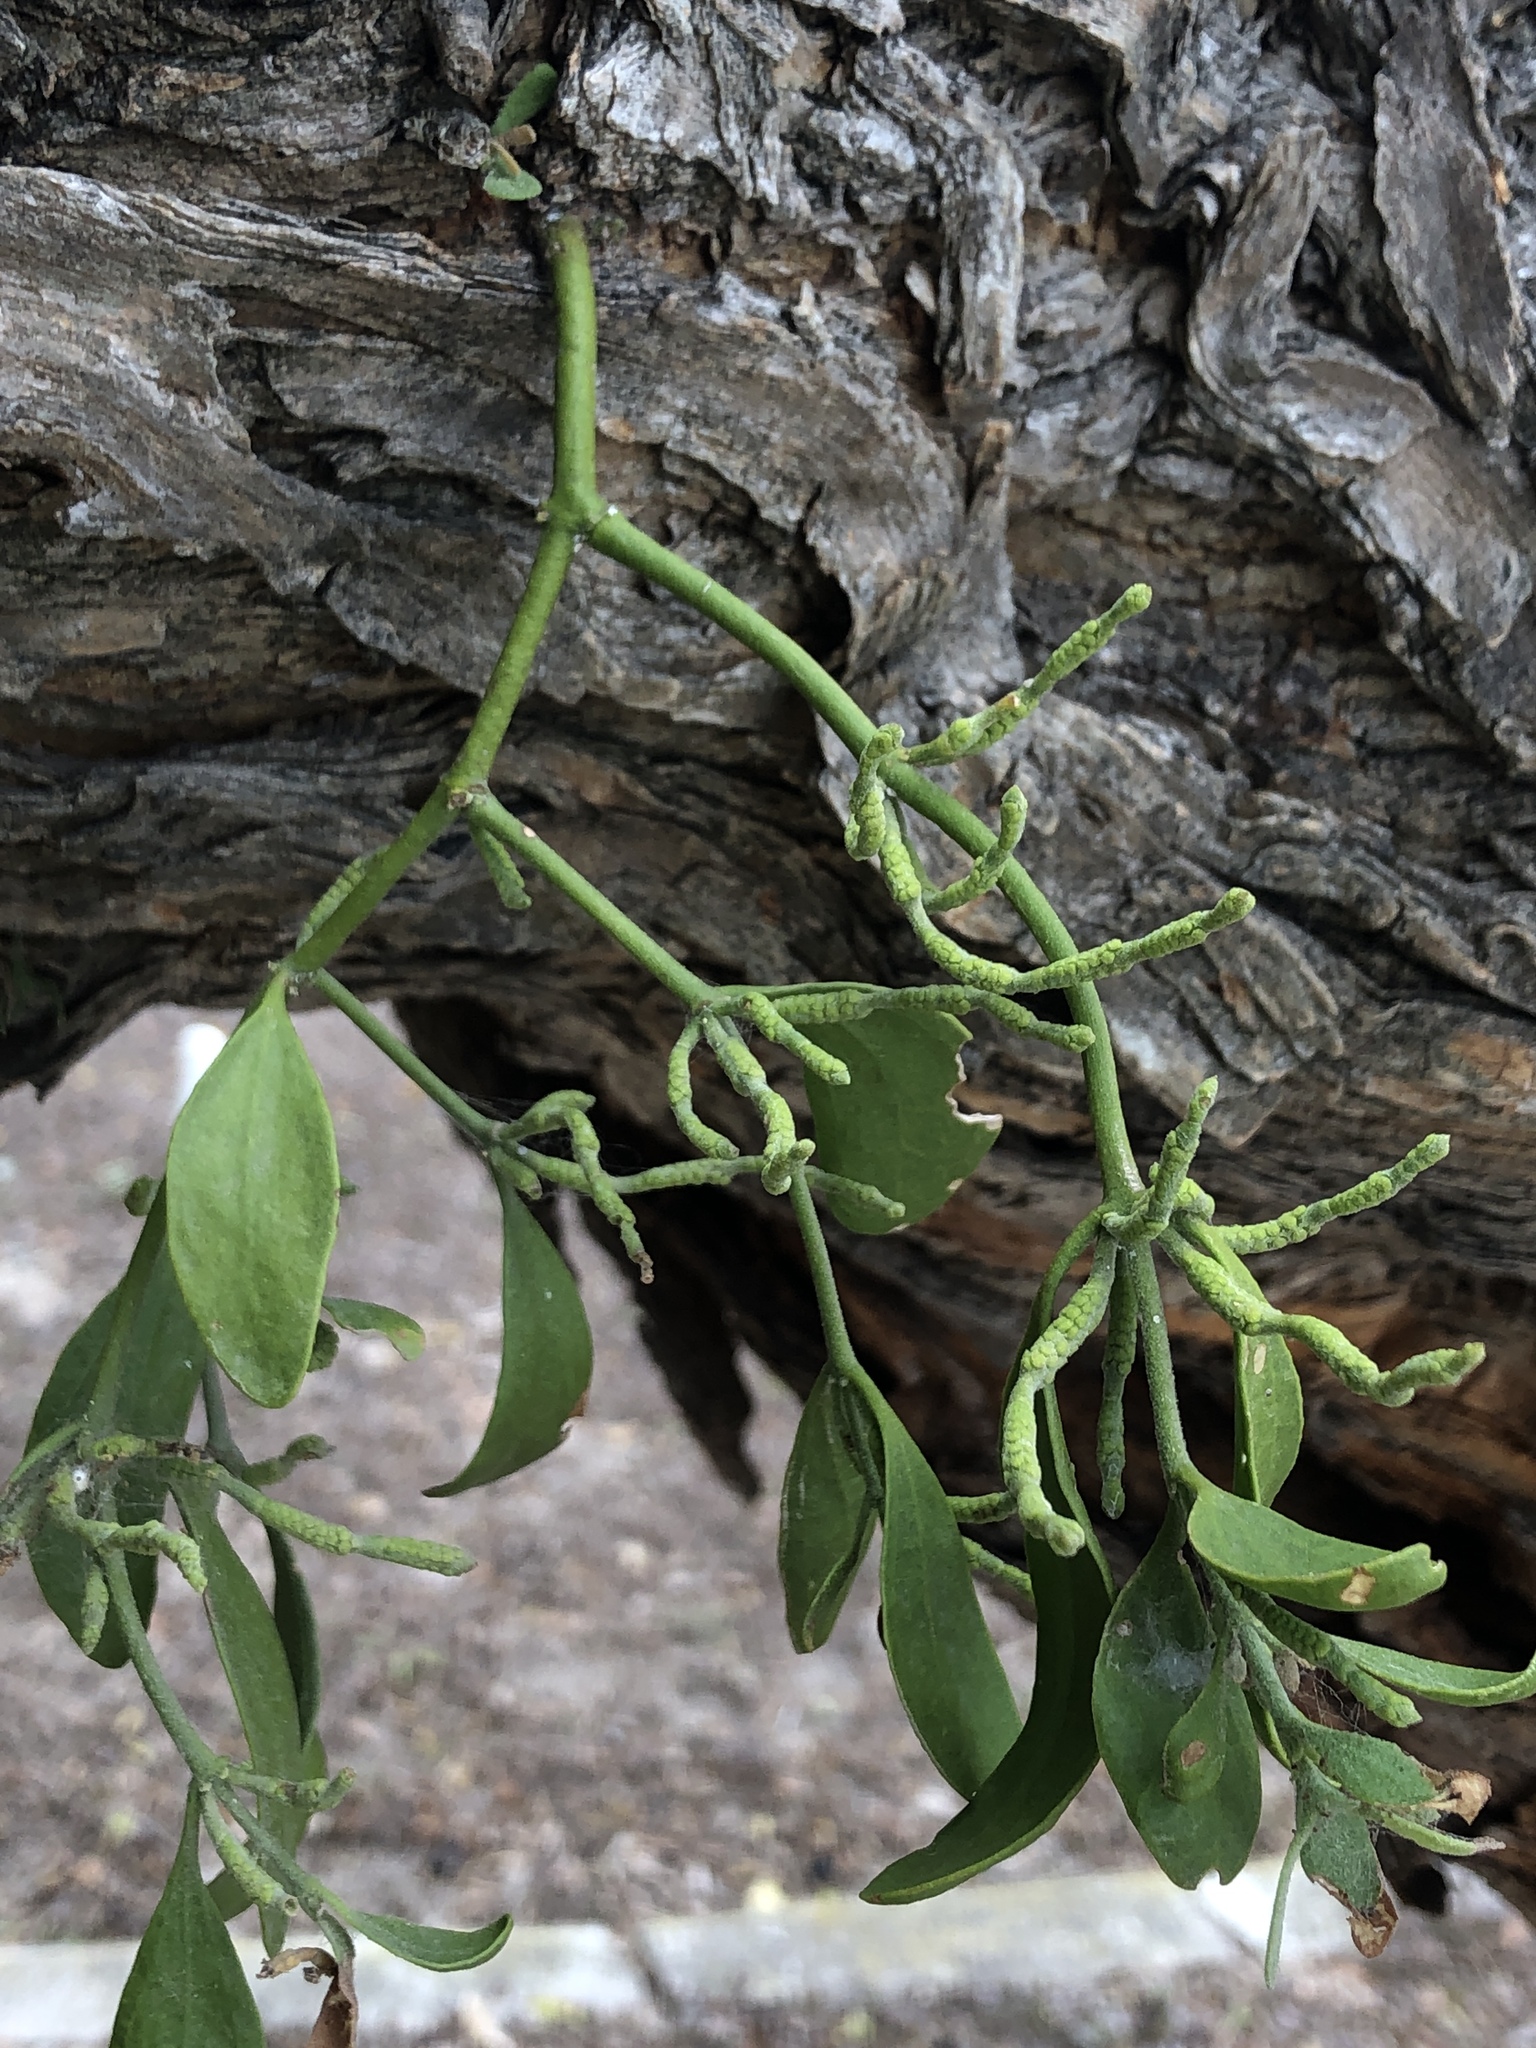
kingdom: Plantae
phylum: Tracheophyta
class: Magnoliopsida
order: Santalales
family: Viscaceae
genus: Phoradendron
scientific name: Phoradendron leucarpum
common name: Pacific mistletoe
